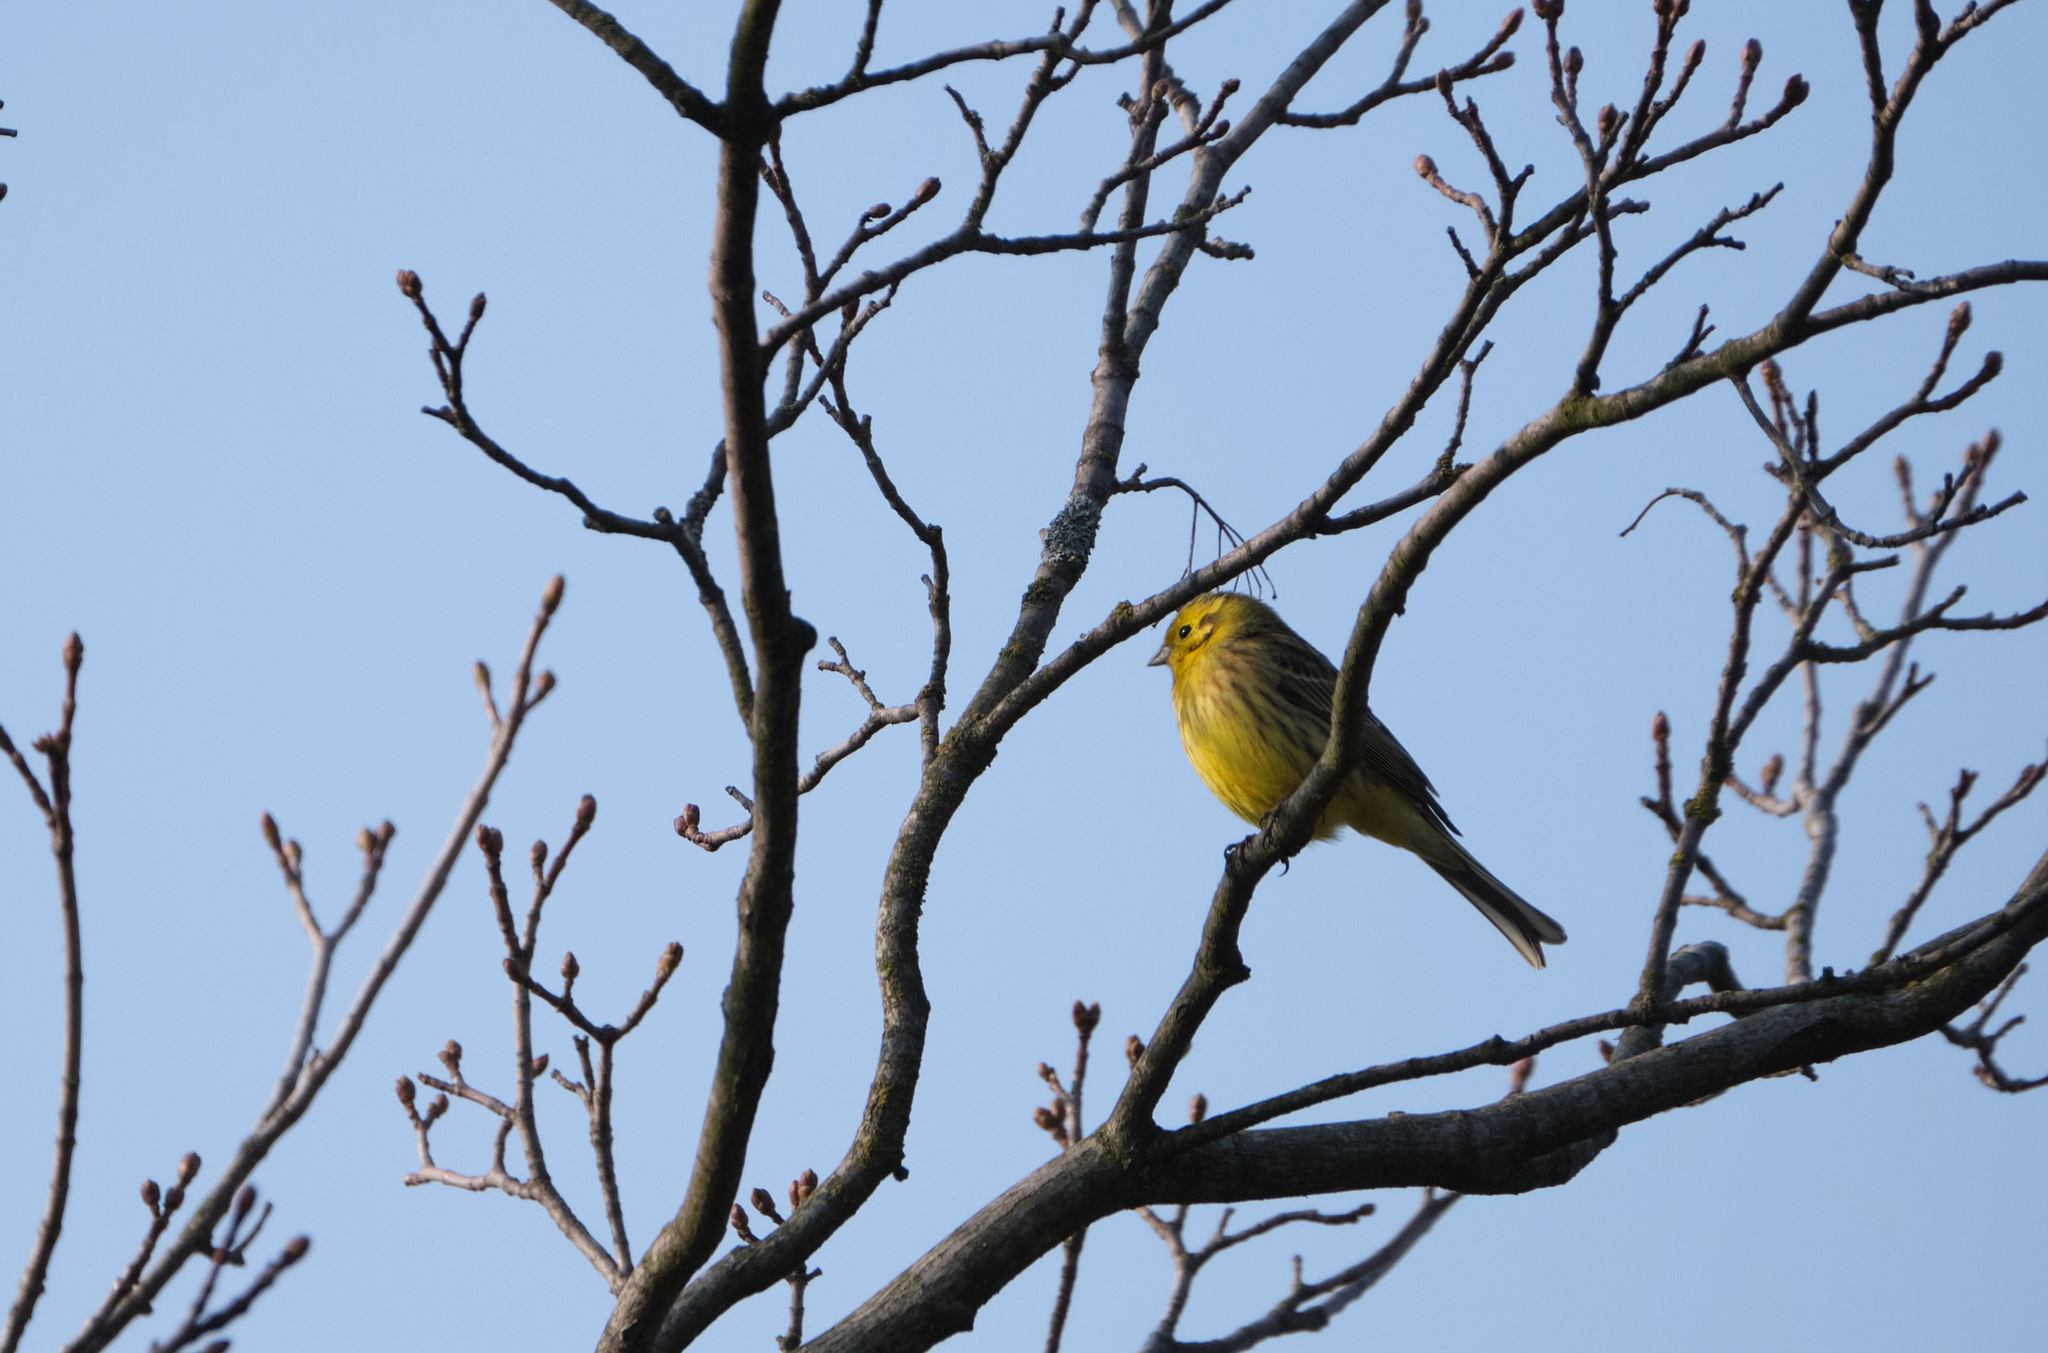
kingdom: Animalia
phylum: Chordata
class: Aves
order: Passeriformes
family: Emberizidae
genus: Emberiza
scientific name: Emberiza citrinella
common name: Yellowhammer
